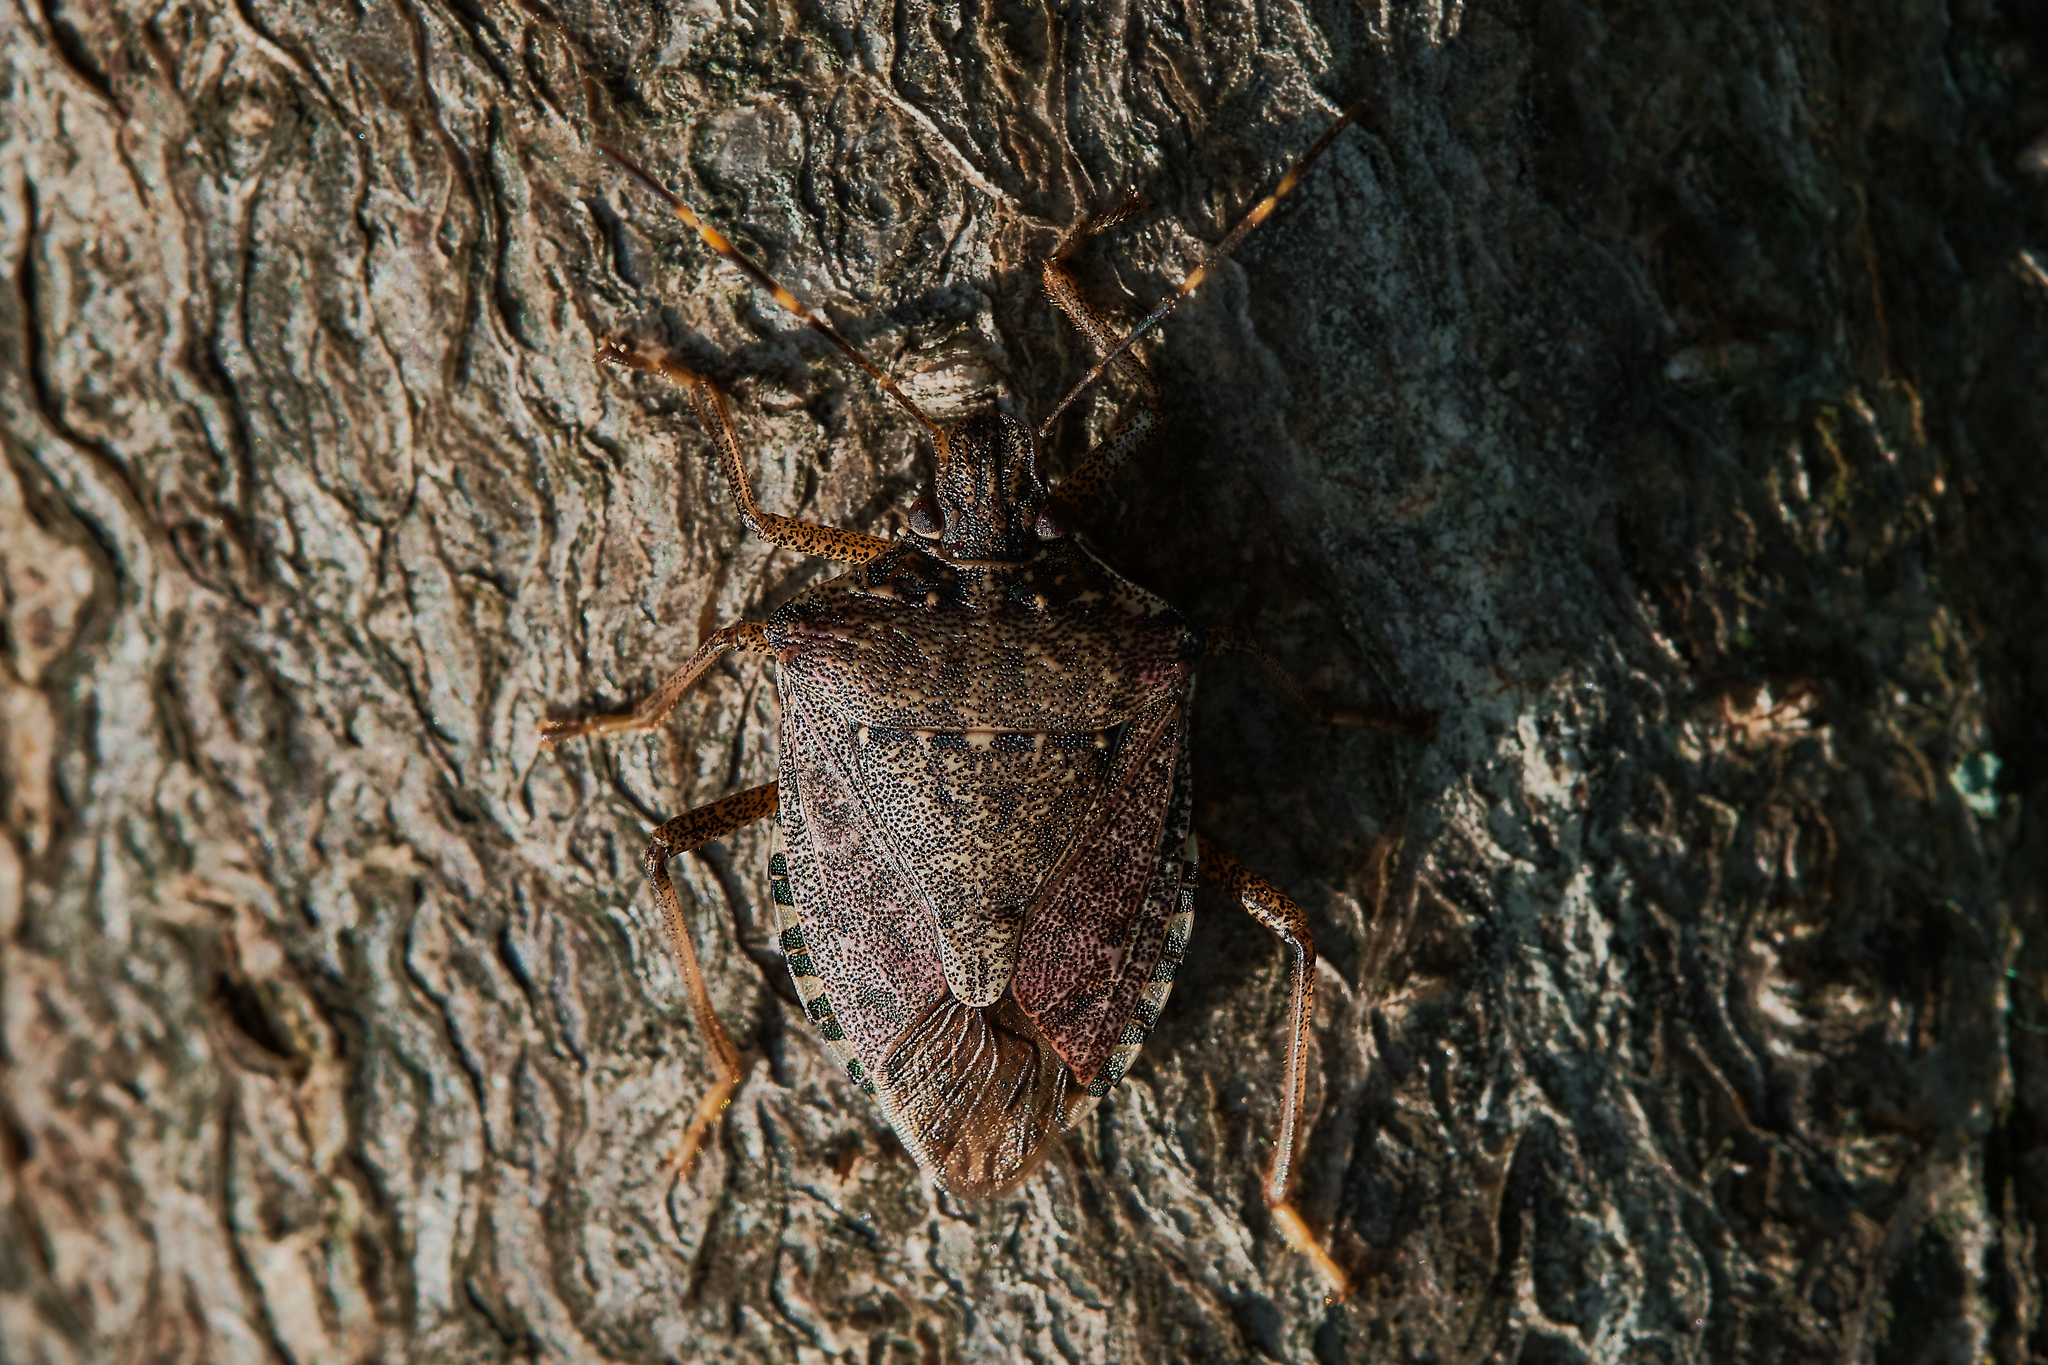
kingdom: Animalia
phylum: Arthropoda
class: Insecta
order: Hemiptera
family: Pentatomidae
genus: Halyomorpha
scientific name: Halyomorpha halys
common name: Brown marmorated stink bug
